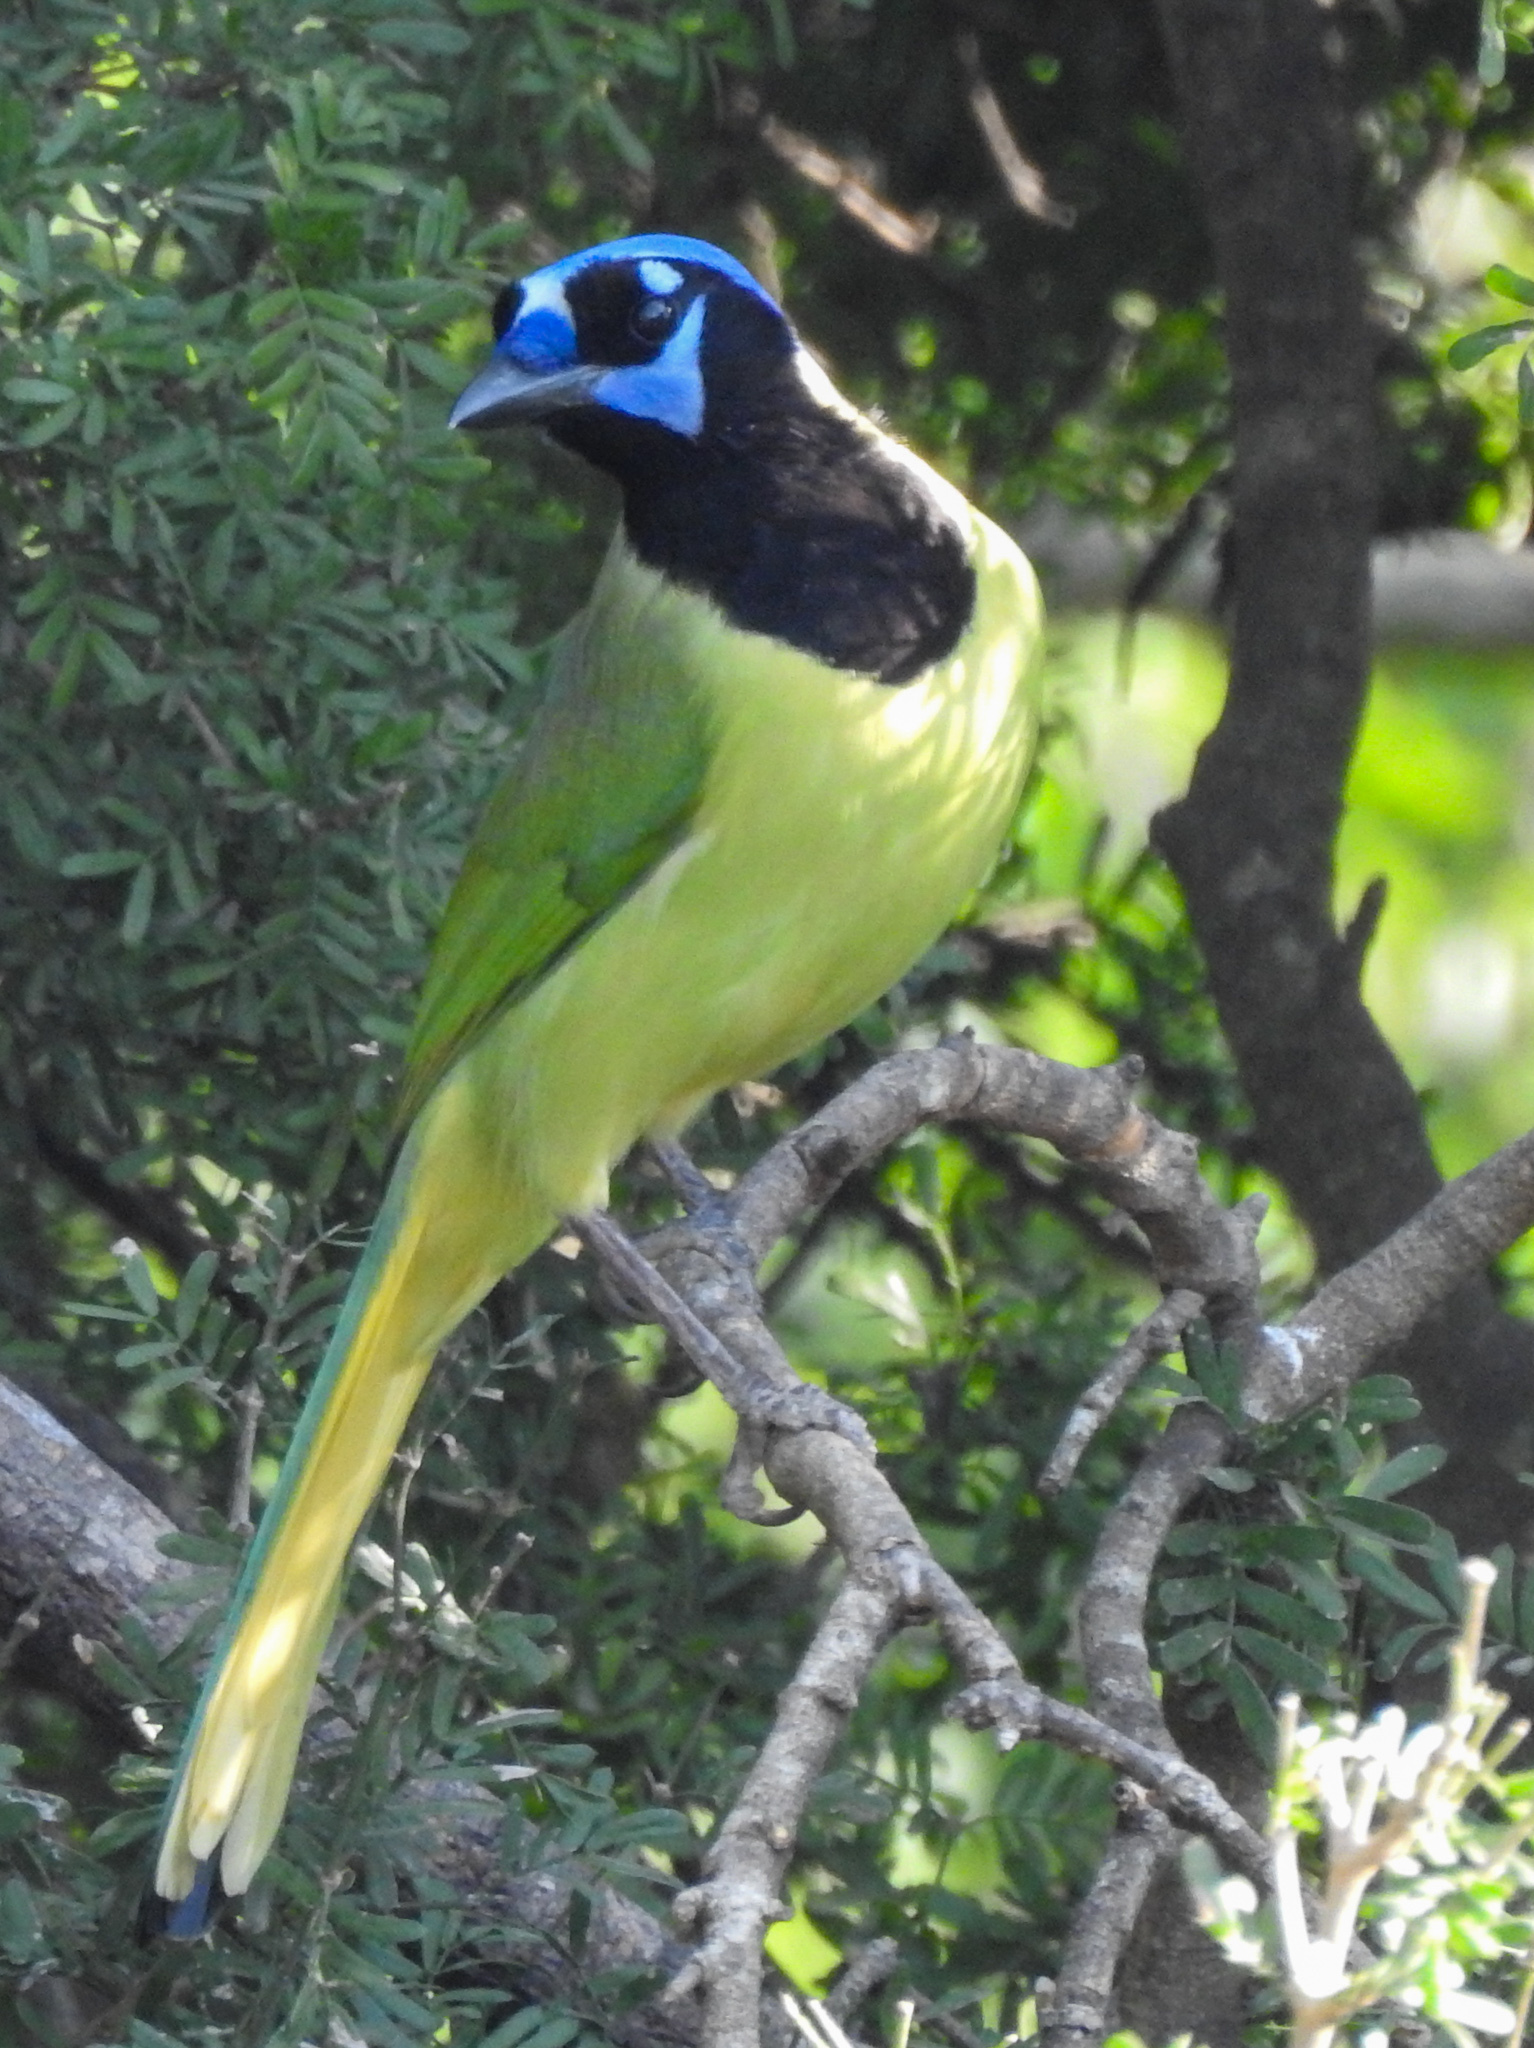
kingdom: Animalia
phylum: Chordata
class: Aves
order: Passeriformes
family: Corvidae
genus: Cyanocorax
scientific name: Cyanocorax yncas
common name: Green jay
